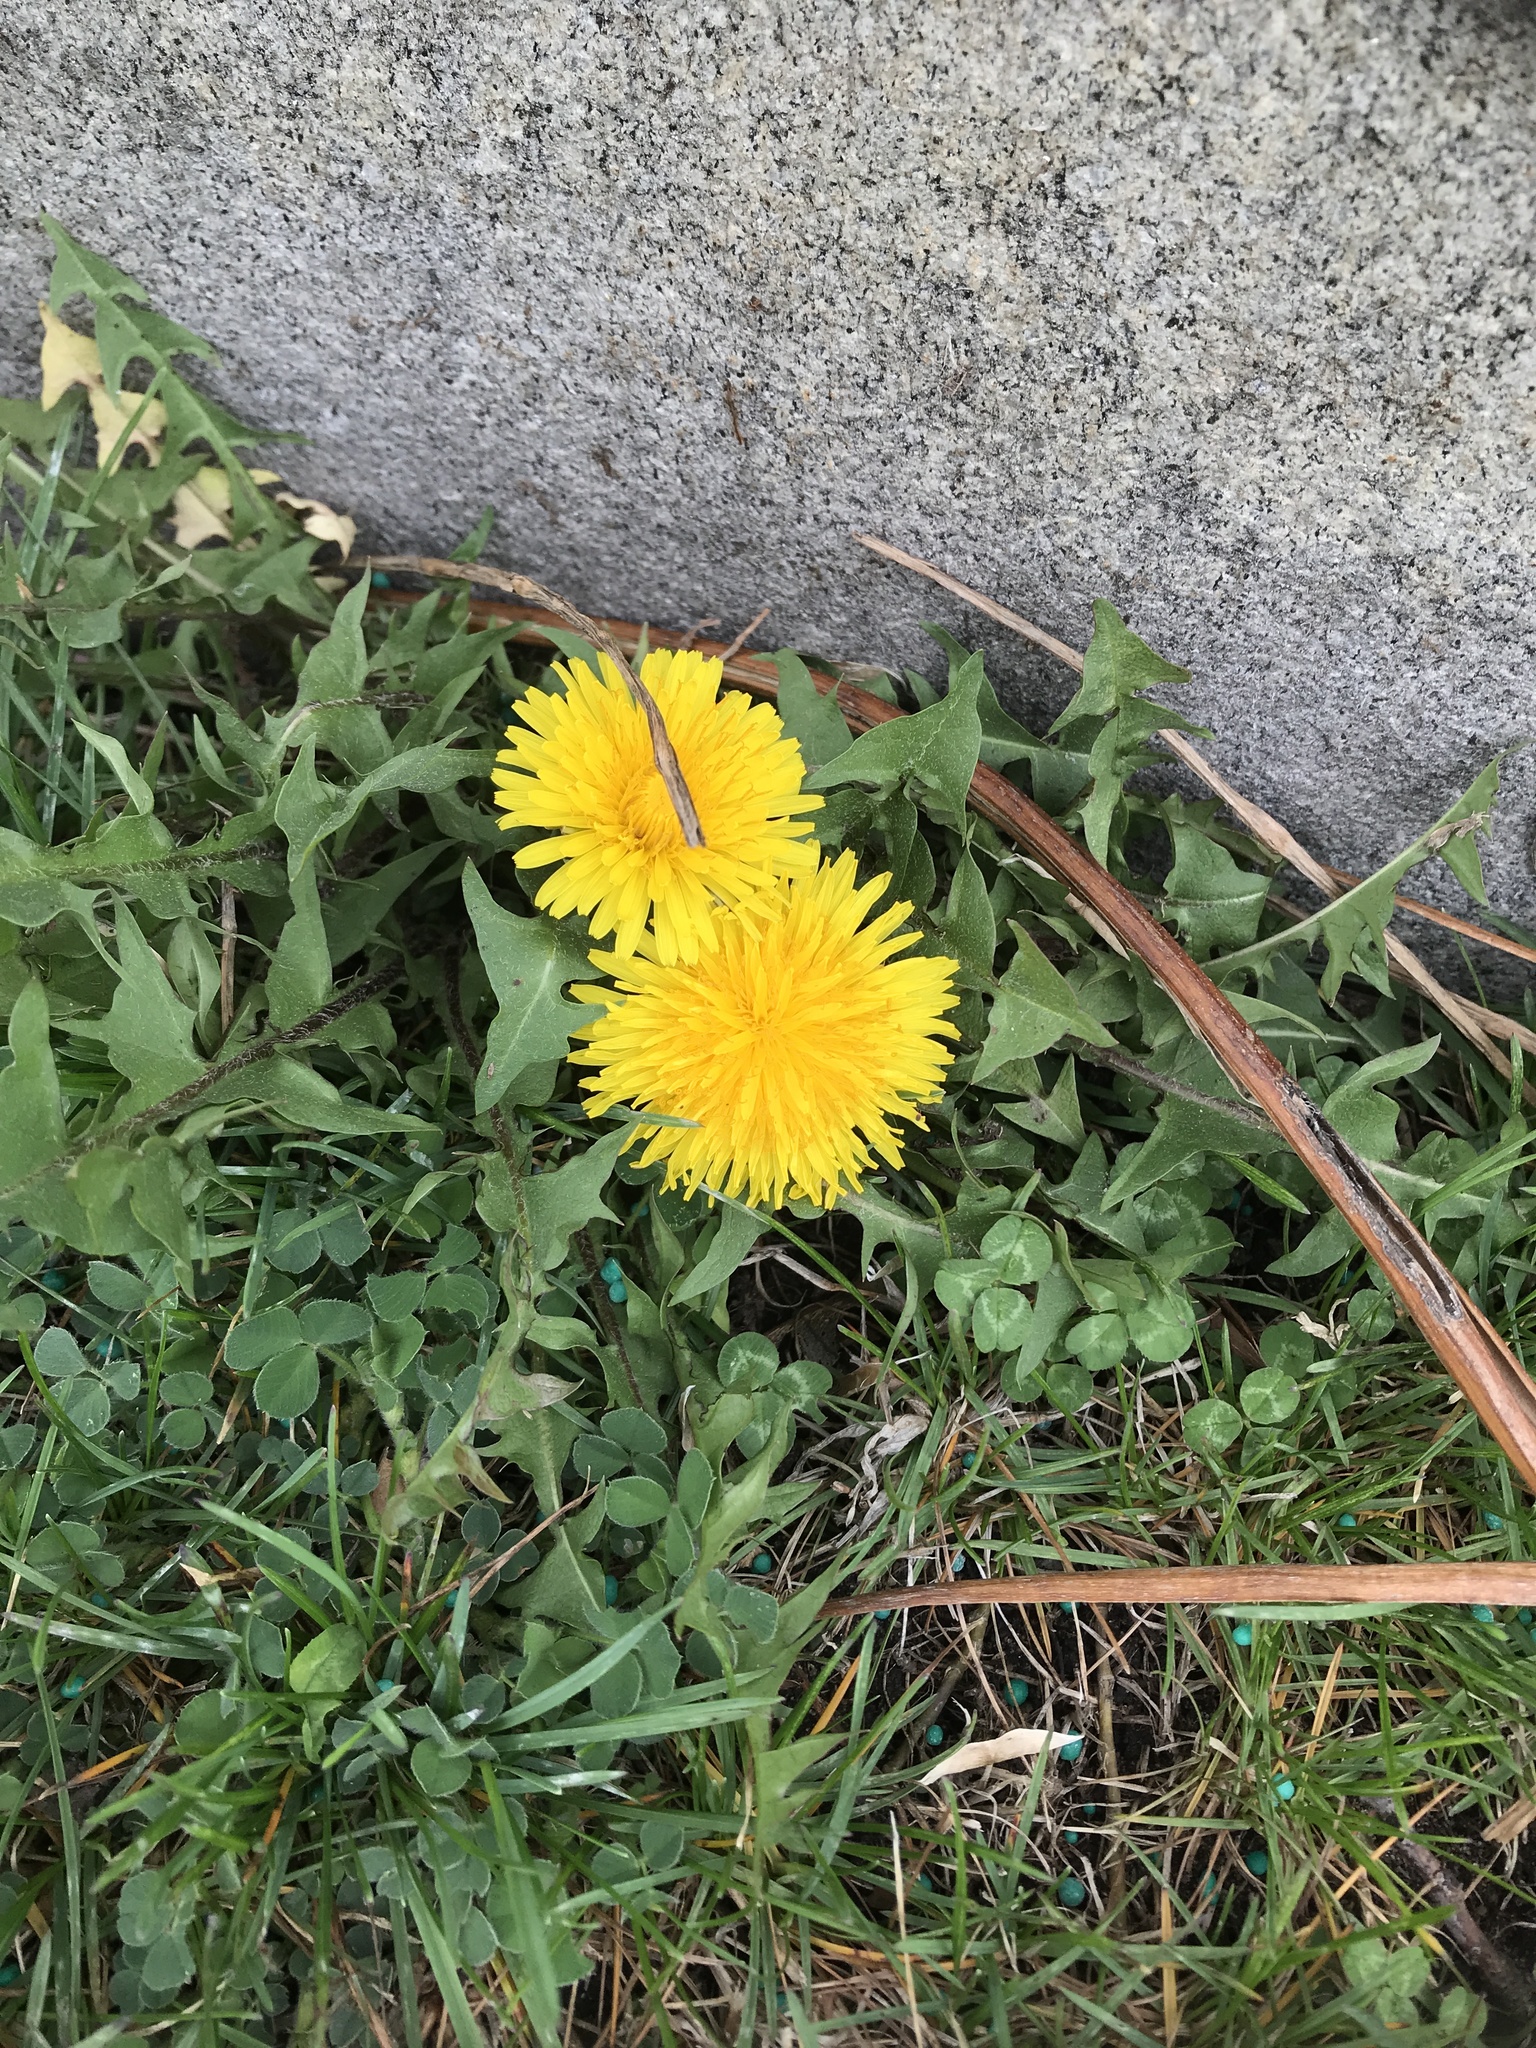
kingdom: Plantae
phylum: Tracheophyta
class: Magnoliopsida
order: Asterales
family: Asteraceae
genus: Taraxacum
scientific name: Taraxacum officinale
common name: Common dandelion
